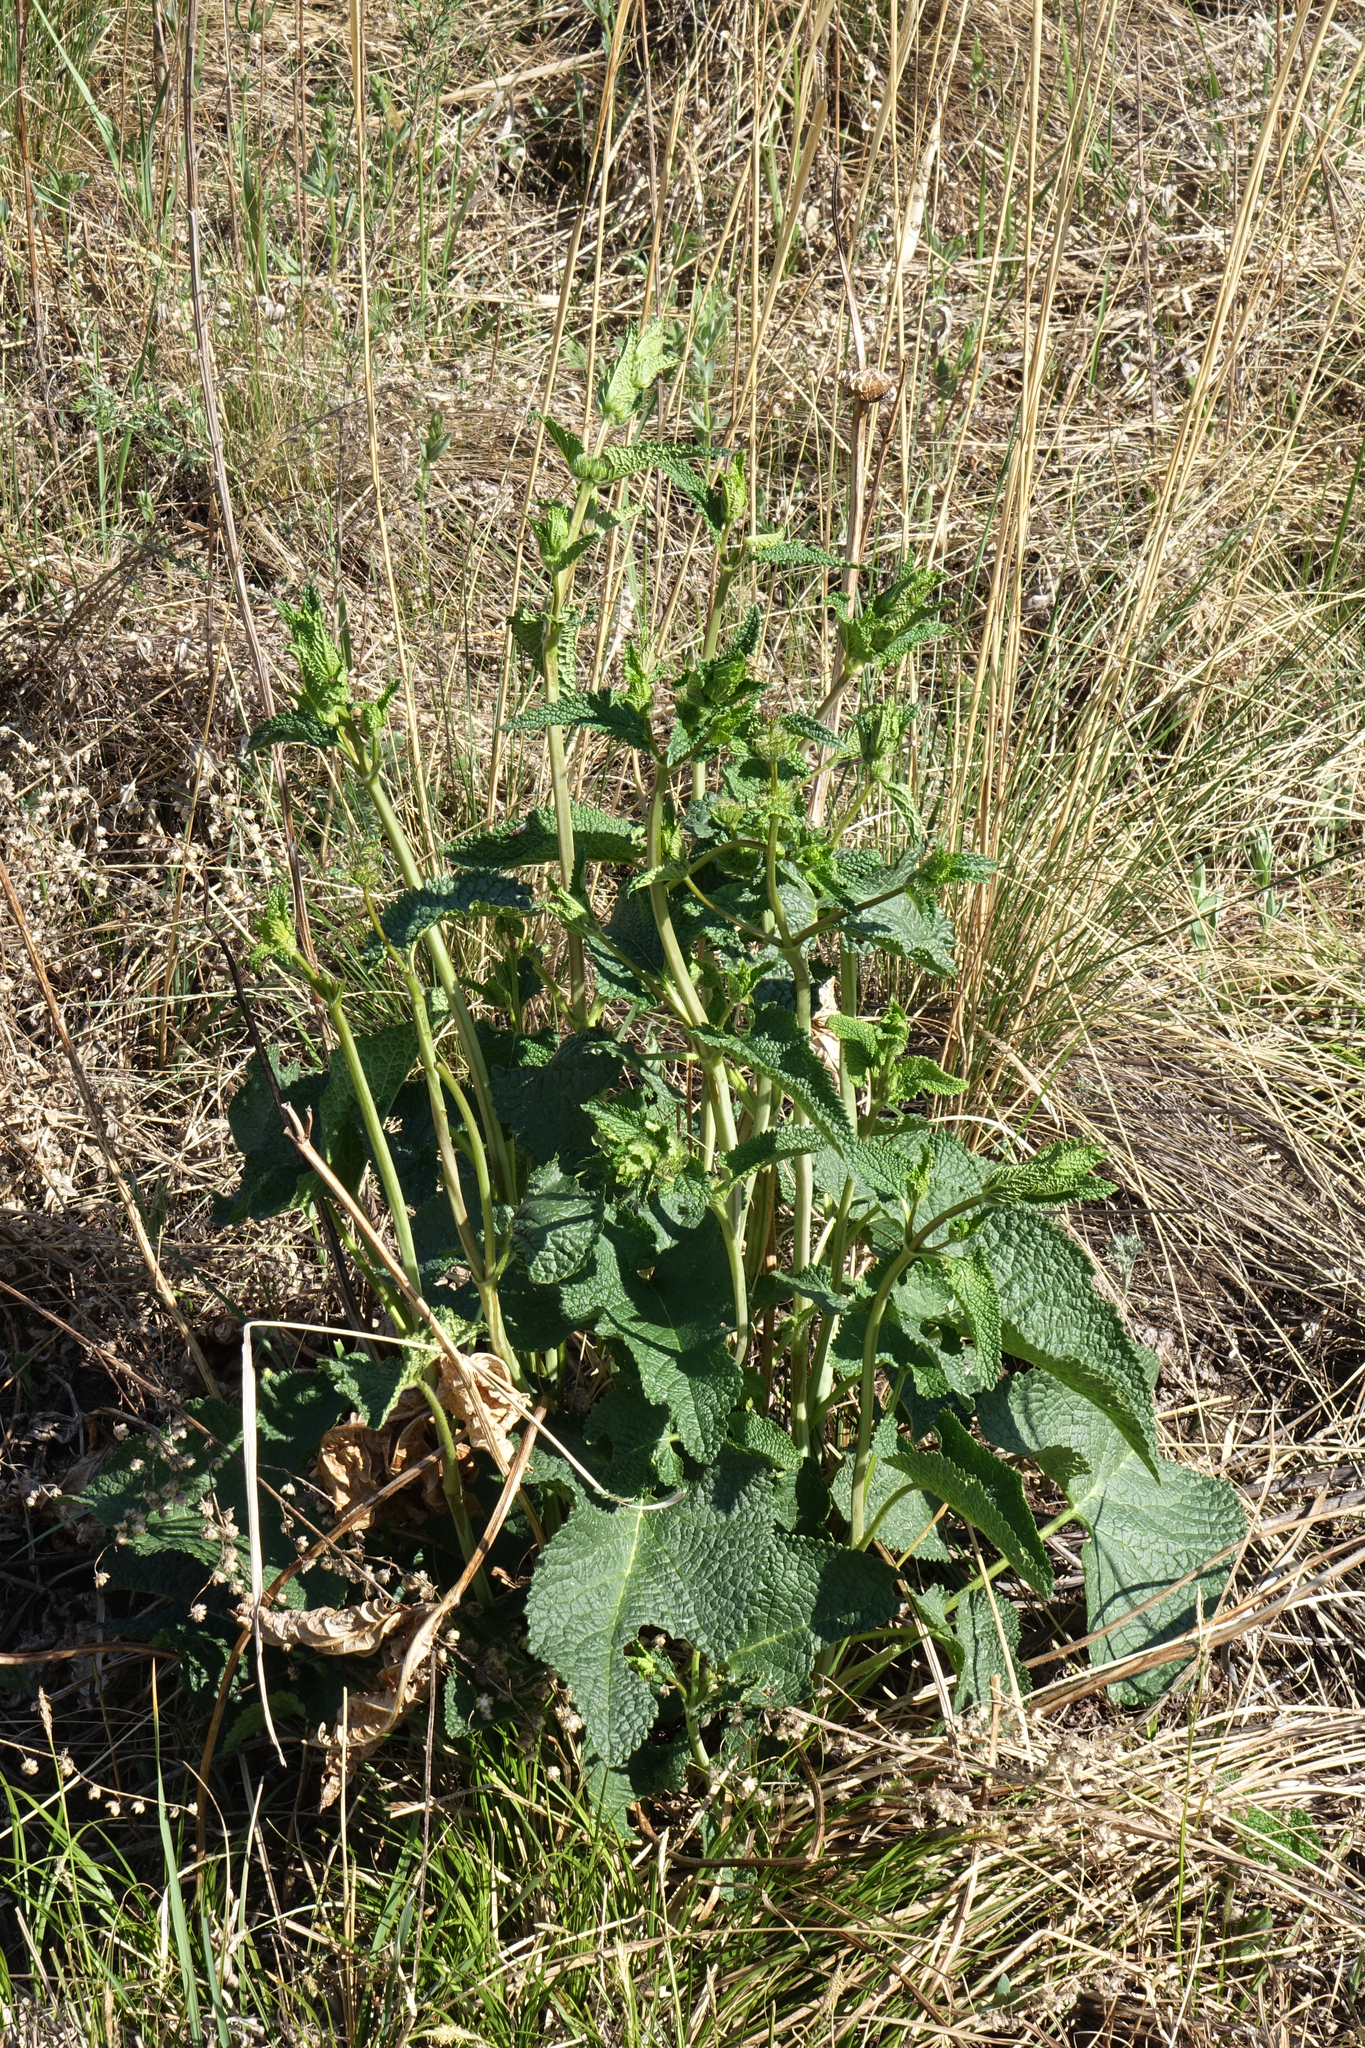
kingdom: Plantae
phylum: Tracheophyta
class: Magnoliopsida
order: Lamiales
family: Lamiaceae
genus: Phlomoides
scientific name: Phlomoides tuberosa
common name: Tuberous jerusalem sage
